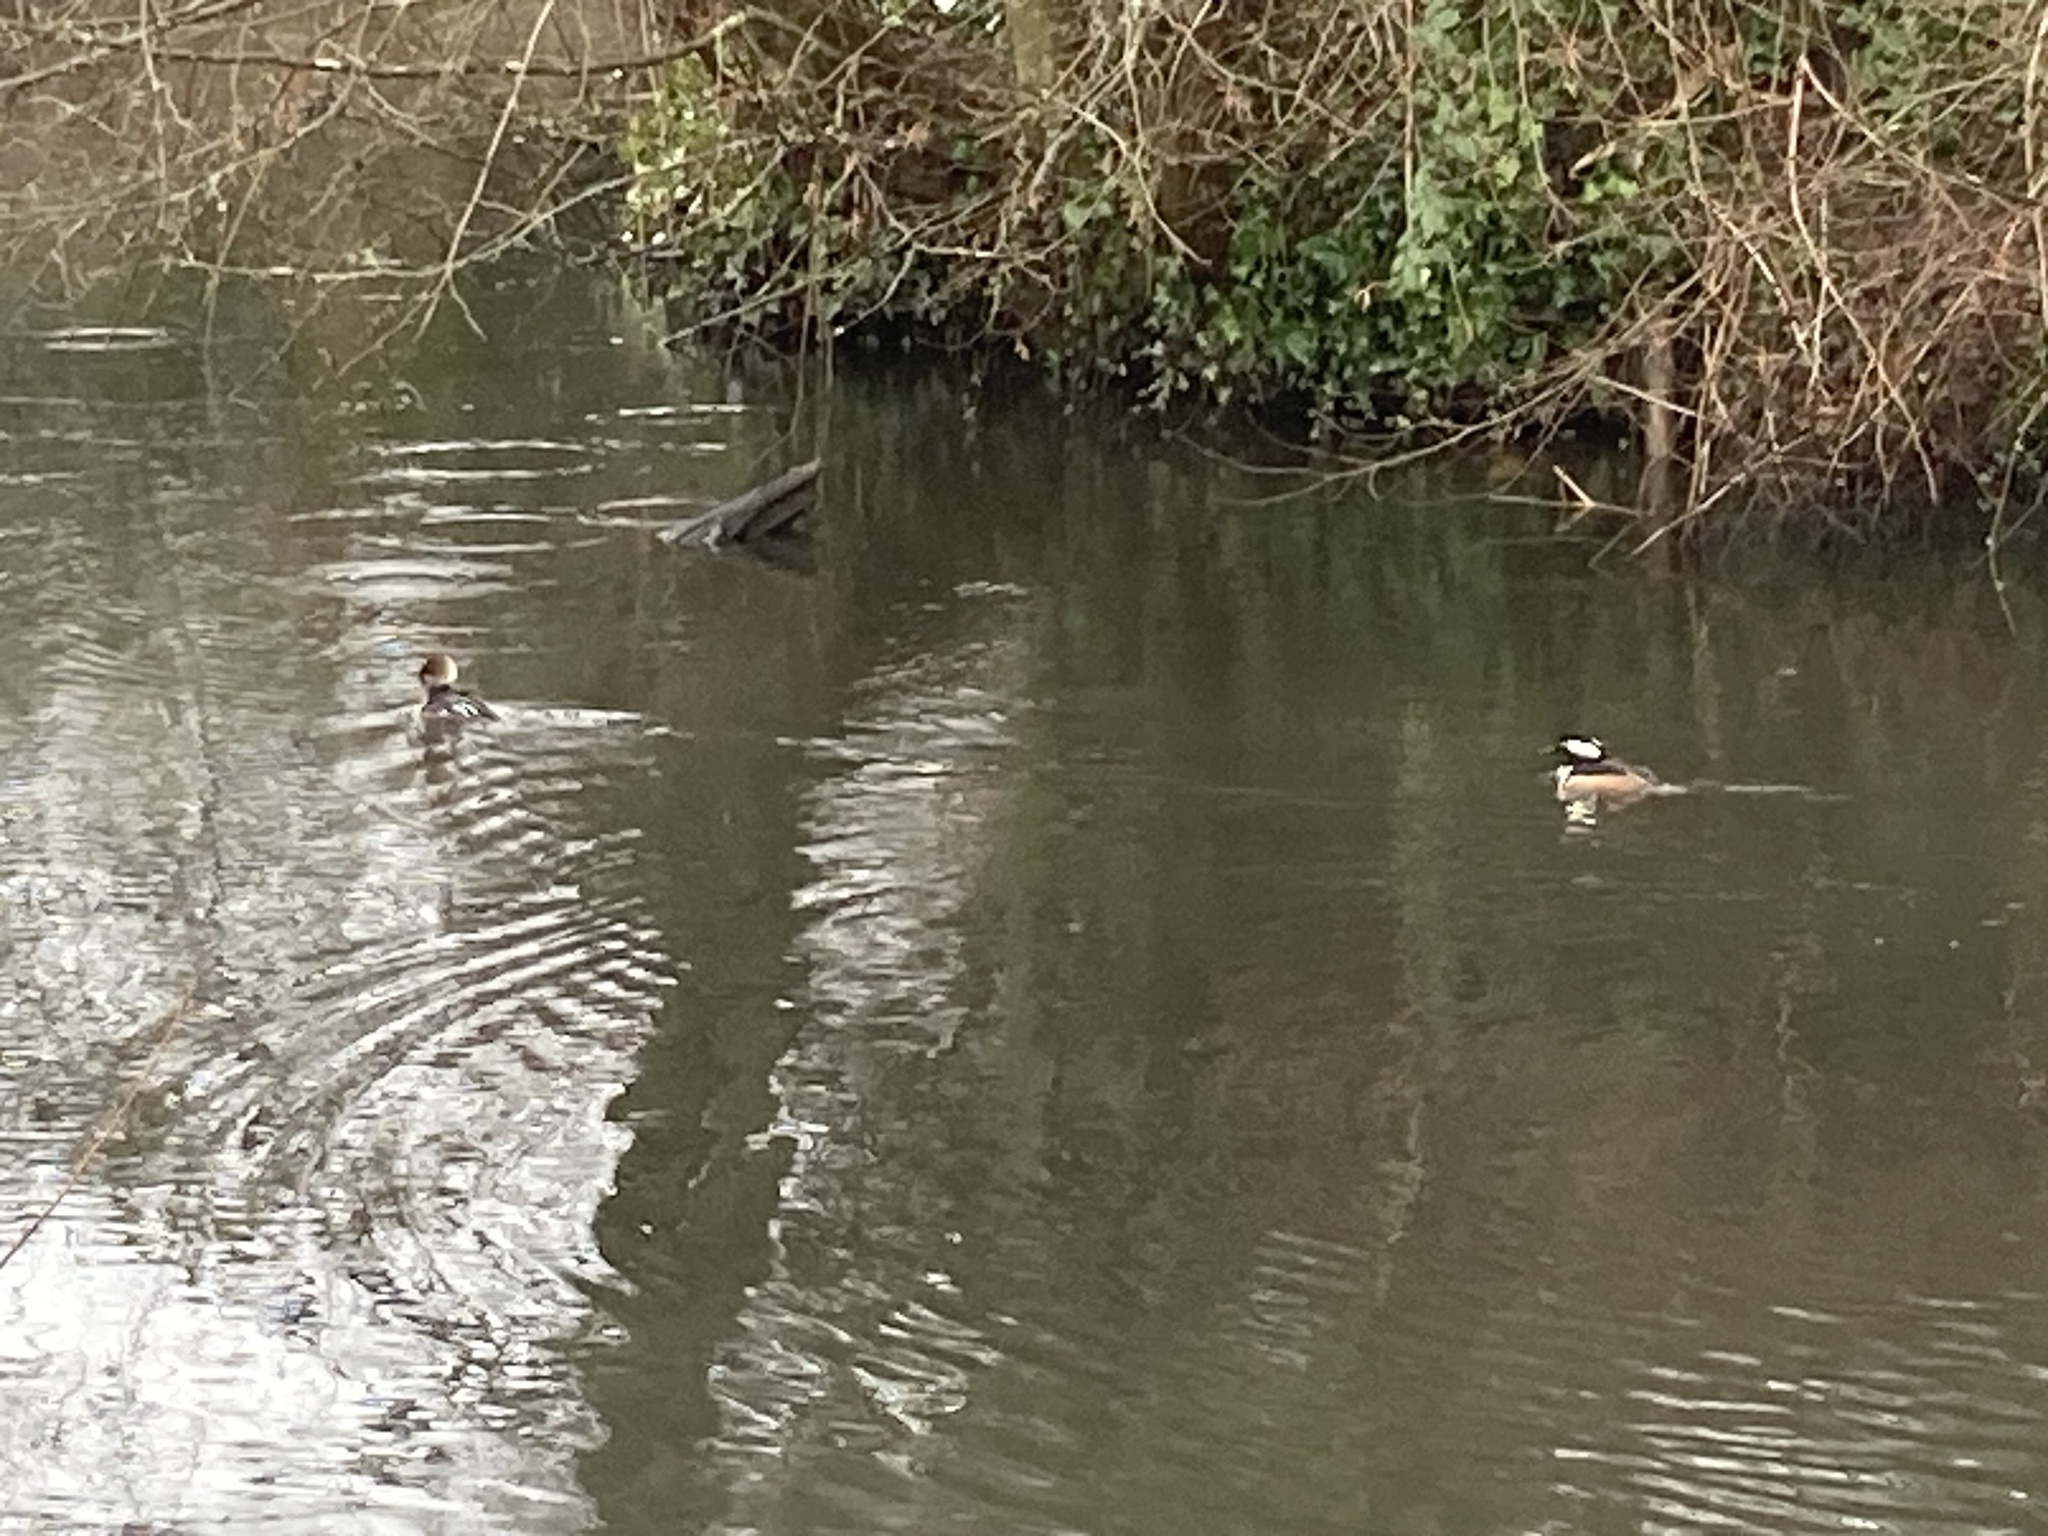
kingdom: Animalia
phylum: Chordata
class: Aves
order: Anseriformes
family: Anatidae
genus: Lophodytes
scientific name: Lophodytes cucullatus
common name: Hooded merganser
